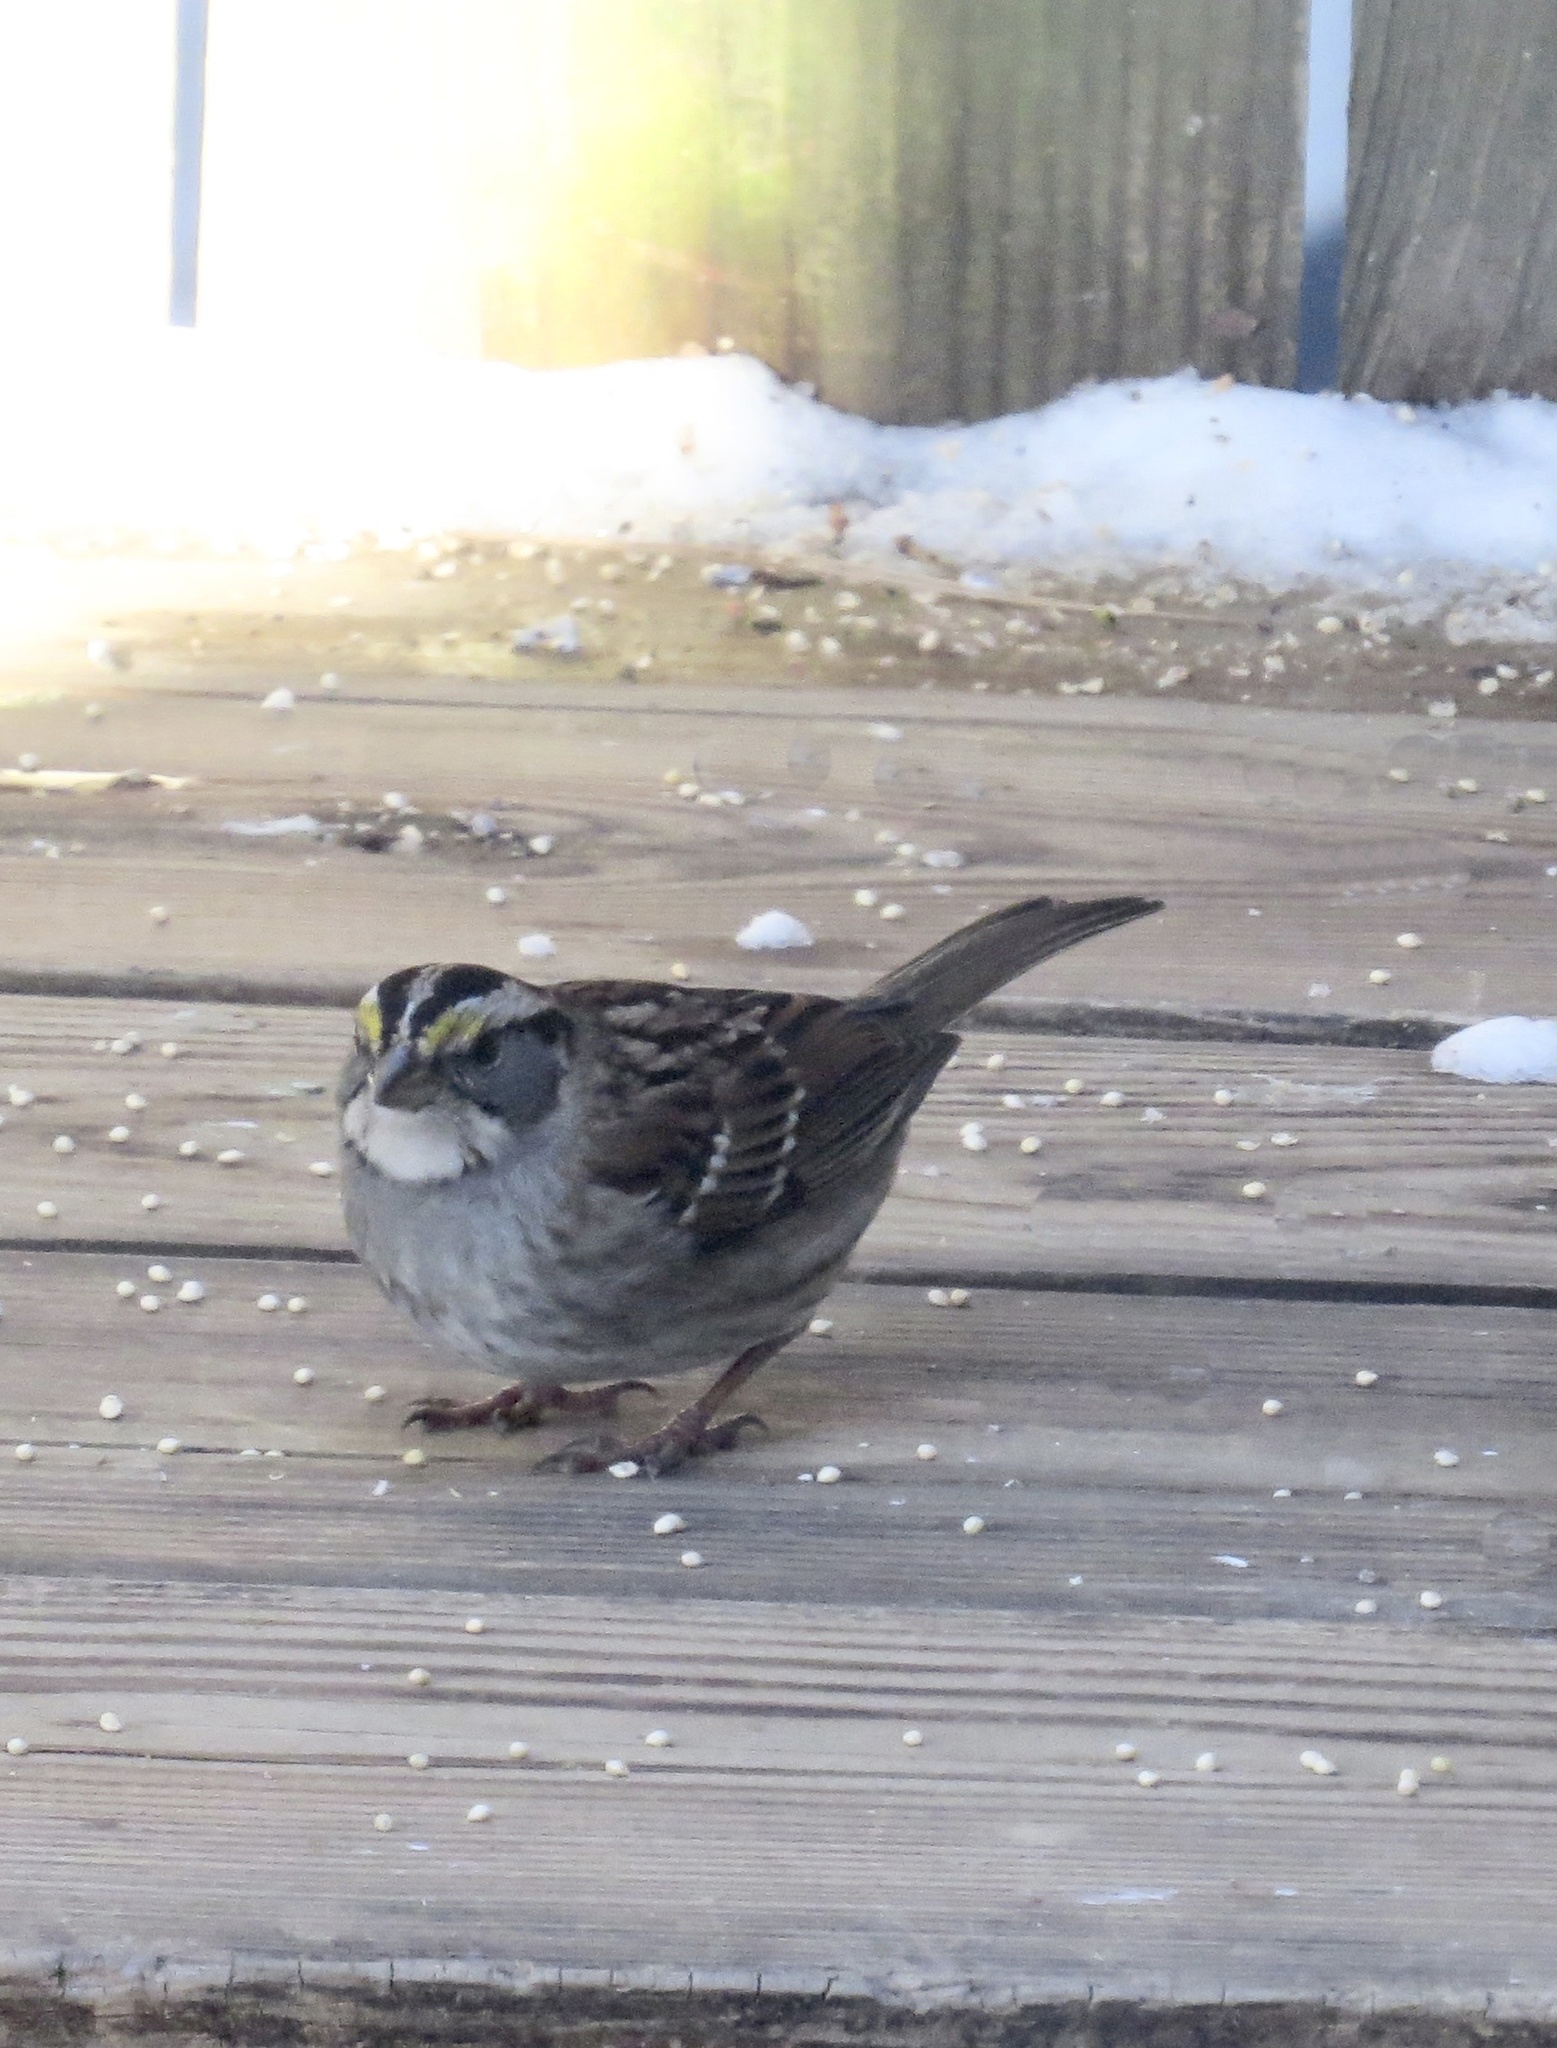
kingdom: Animalia
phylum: Chordata
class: Aves
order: Passeriformes
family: Passerellidae
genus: Zonotrichia
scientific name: Zonotrichia albicollis
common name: White-throated sparrow
